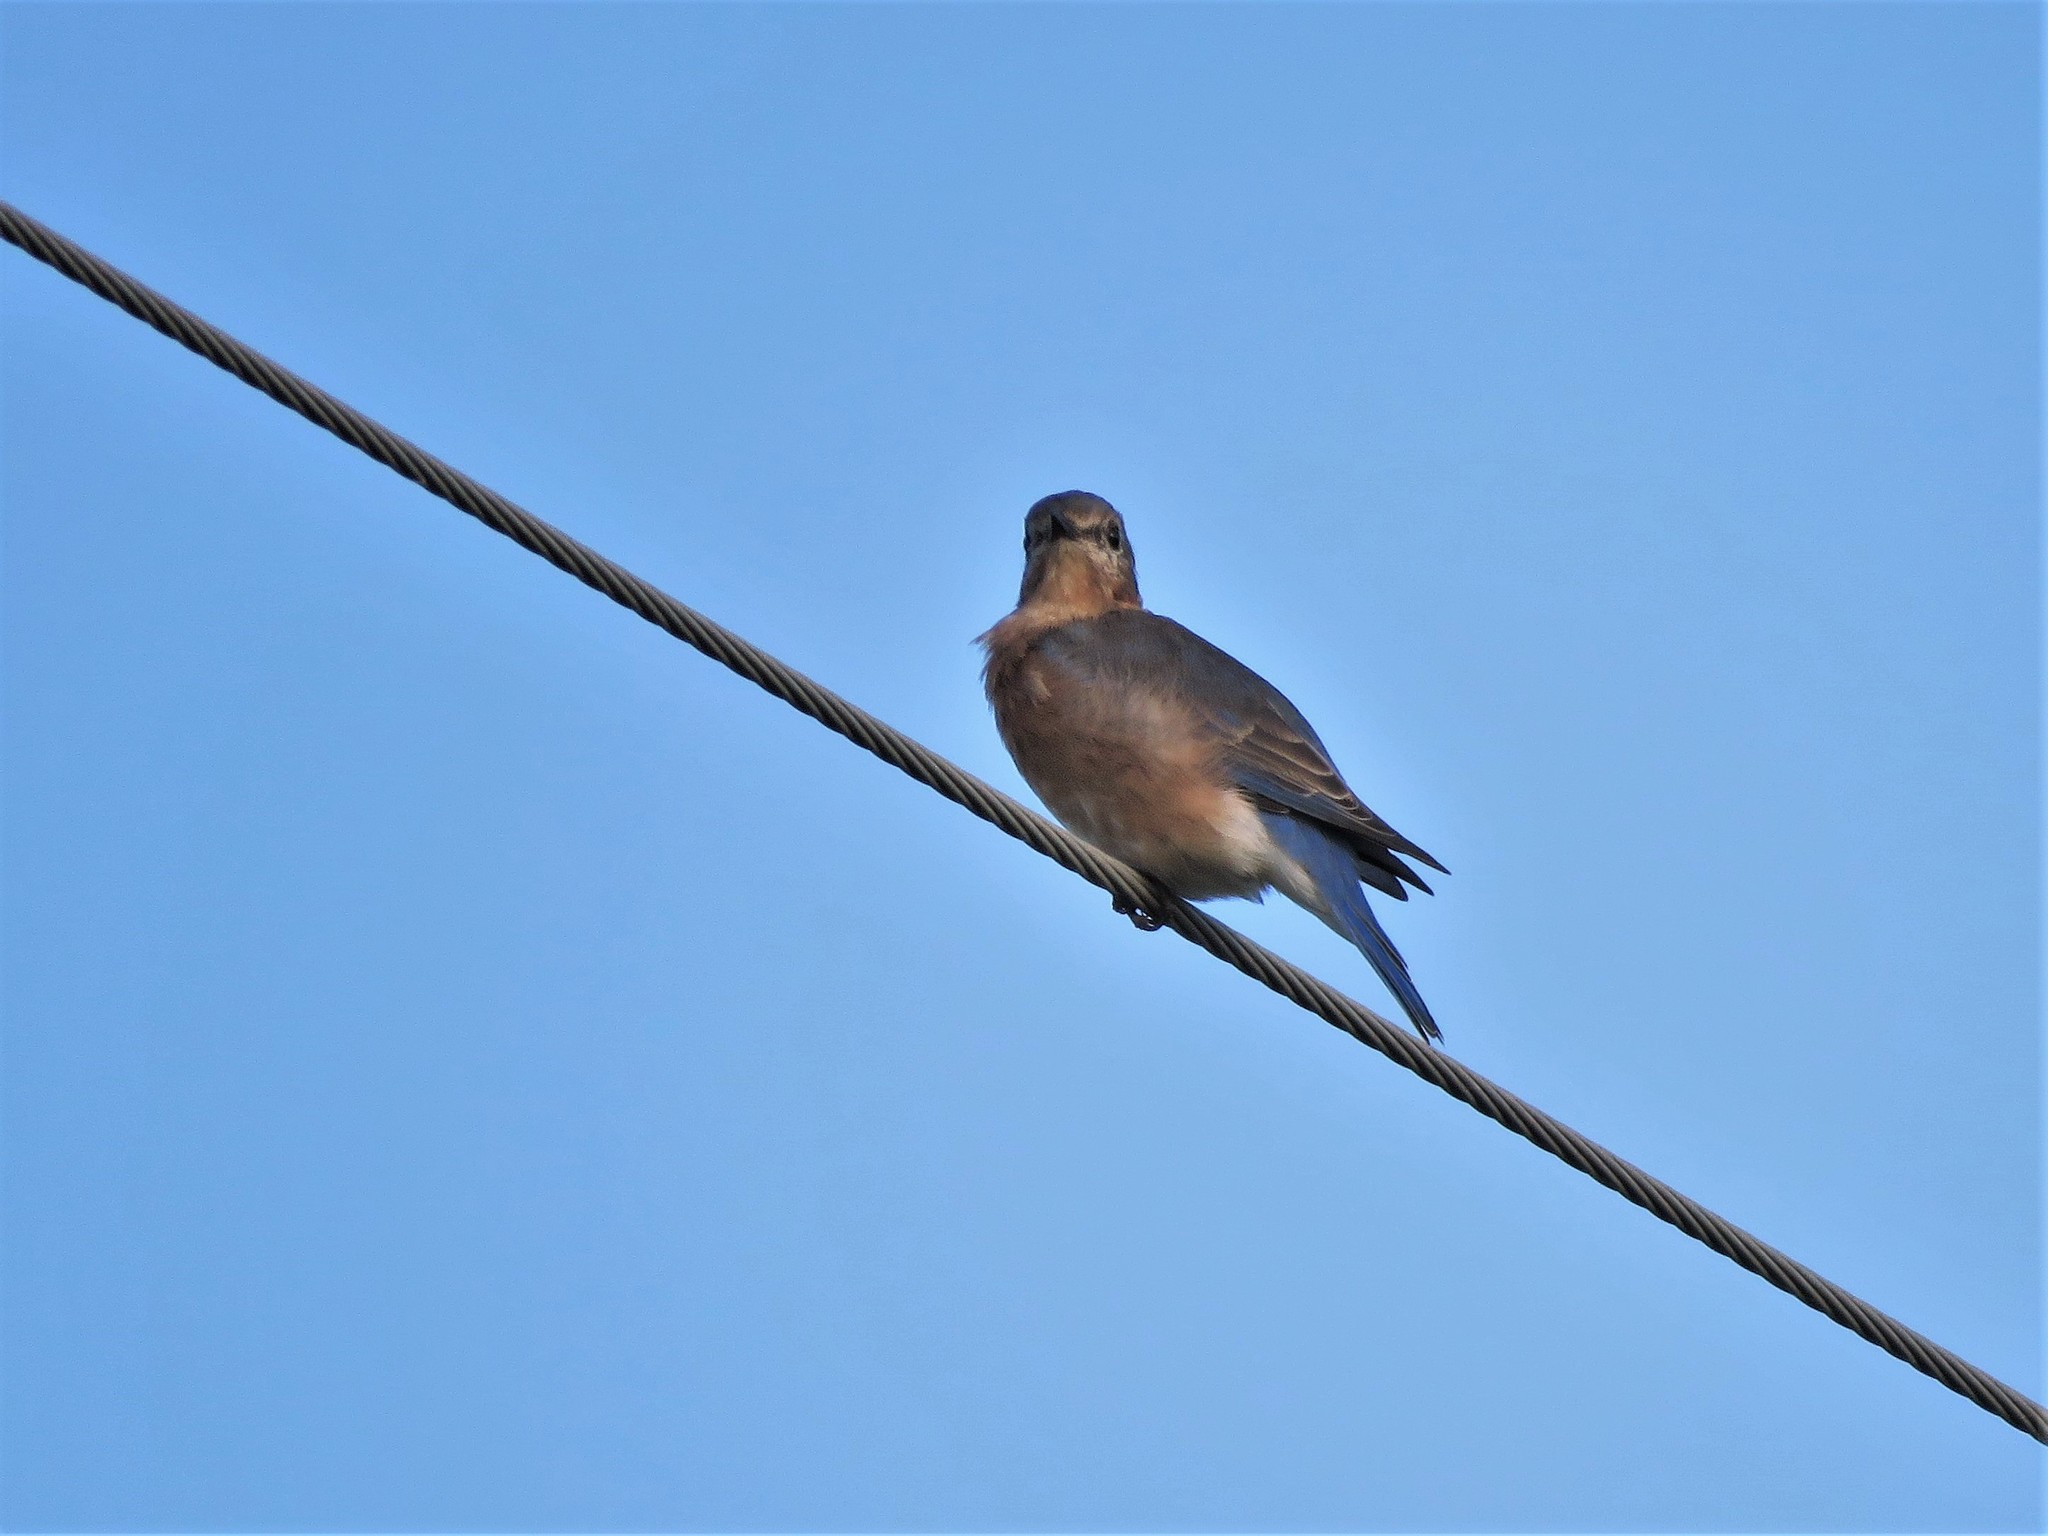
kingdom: Animalia
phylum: Chordata
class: Aves
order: Passeriformes
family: Turdidae
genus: Sialia
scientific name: Sialia sialis
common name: Eastern bluebird
